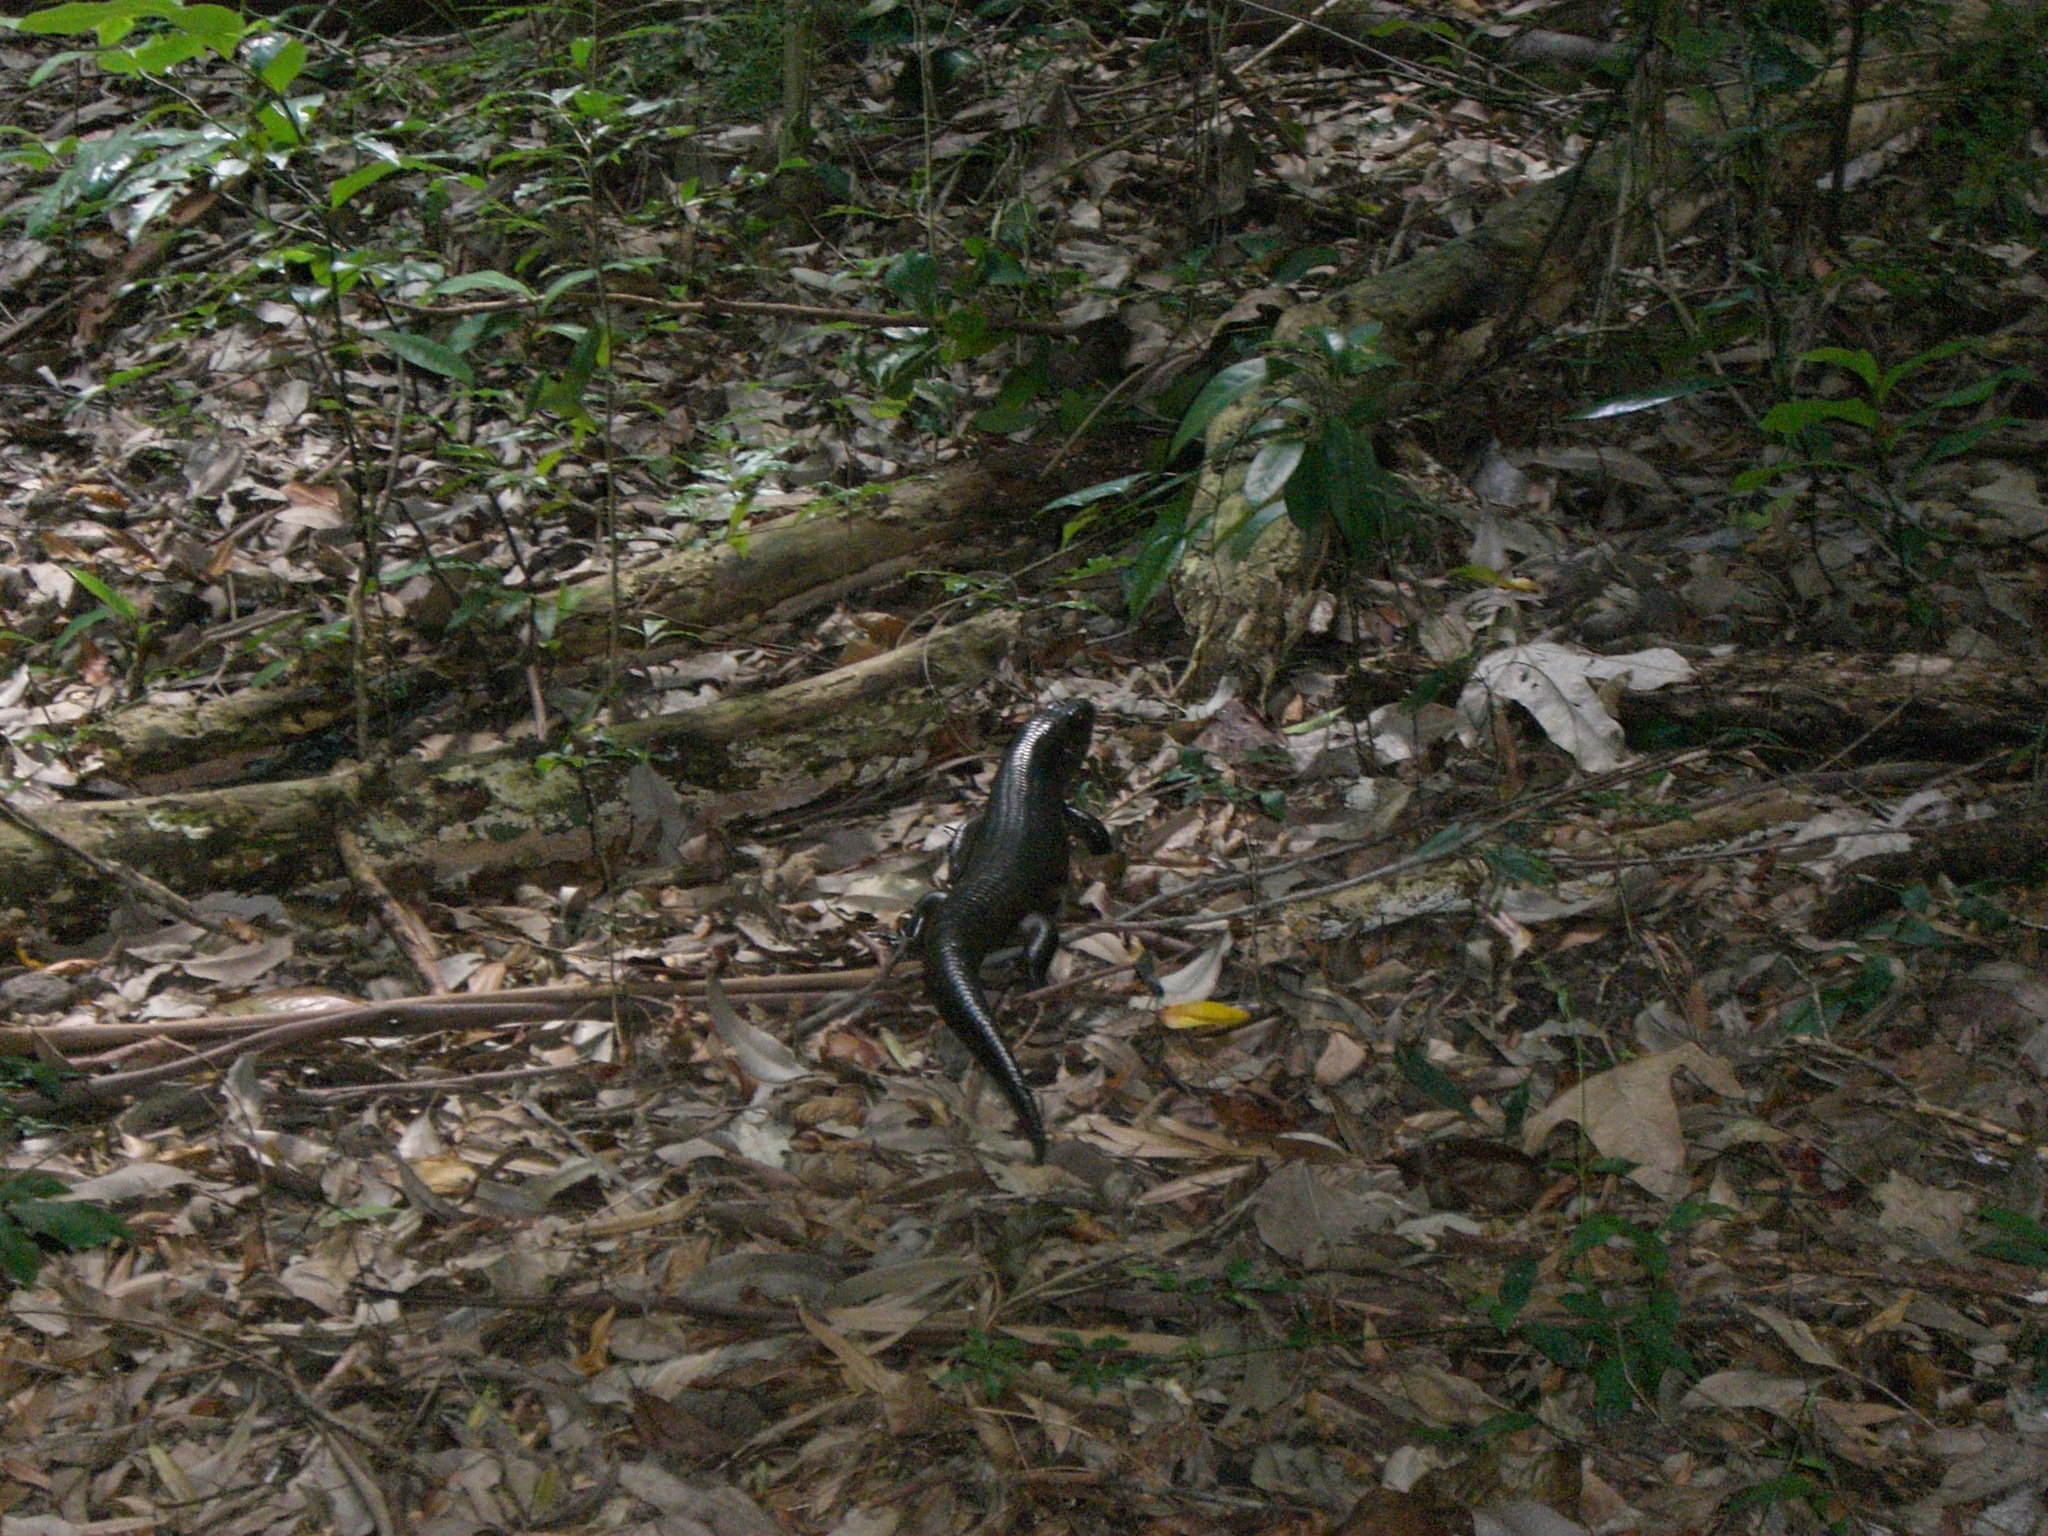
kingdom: Animalia
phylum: Chordata
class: Squamata
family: Scincidae
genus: Bellatorias
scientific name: Bellatorias major
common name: Land mullet
